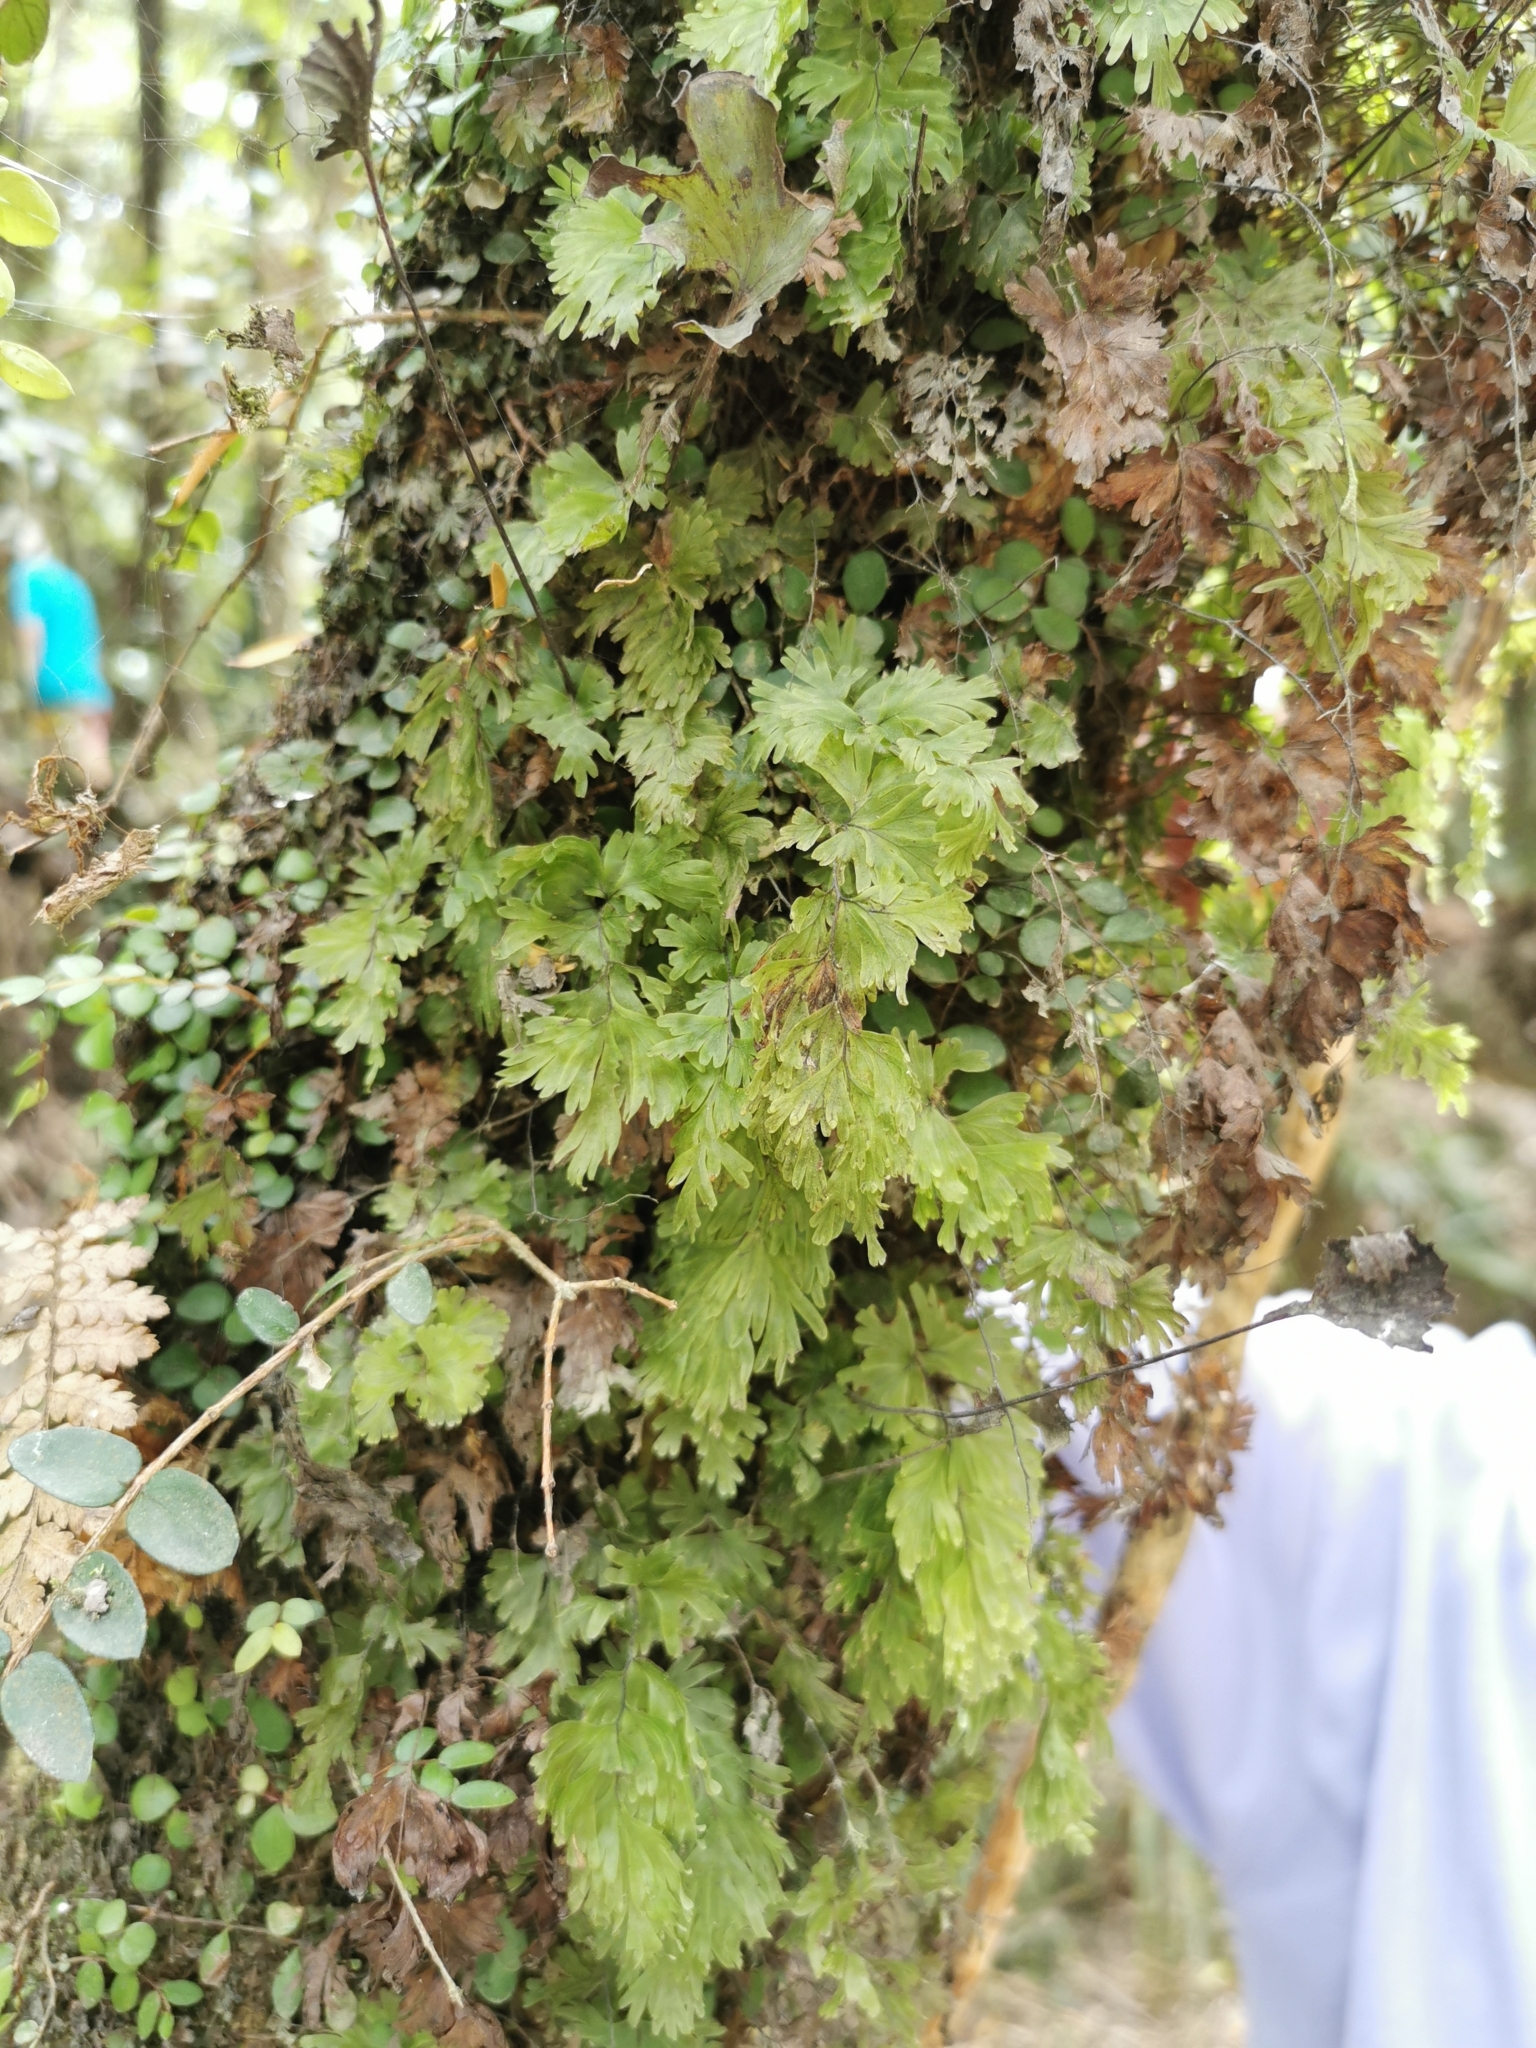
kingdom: Plantae
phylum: Tracheophyta
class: Polypodiopsida
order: Hymenophyllales
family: Hymenophyllaceae
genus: Hymenophyllum
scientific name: Hymenophyllum flabellatum
